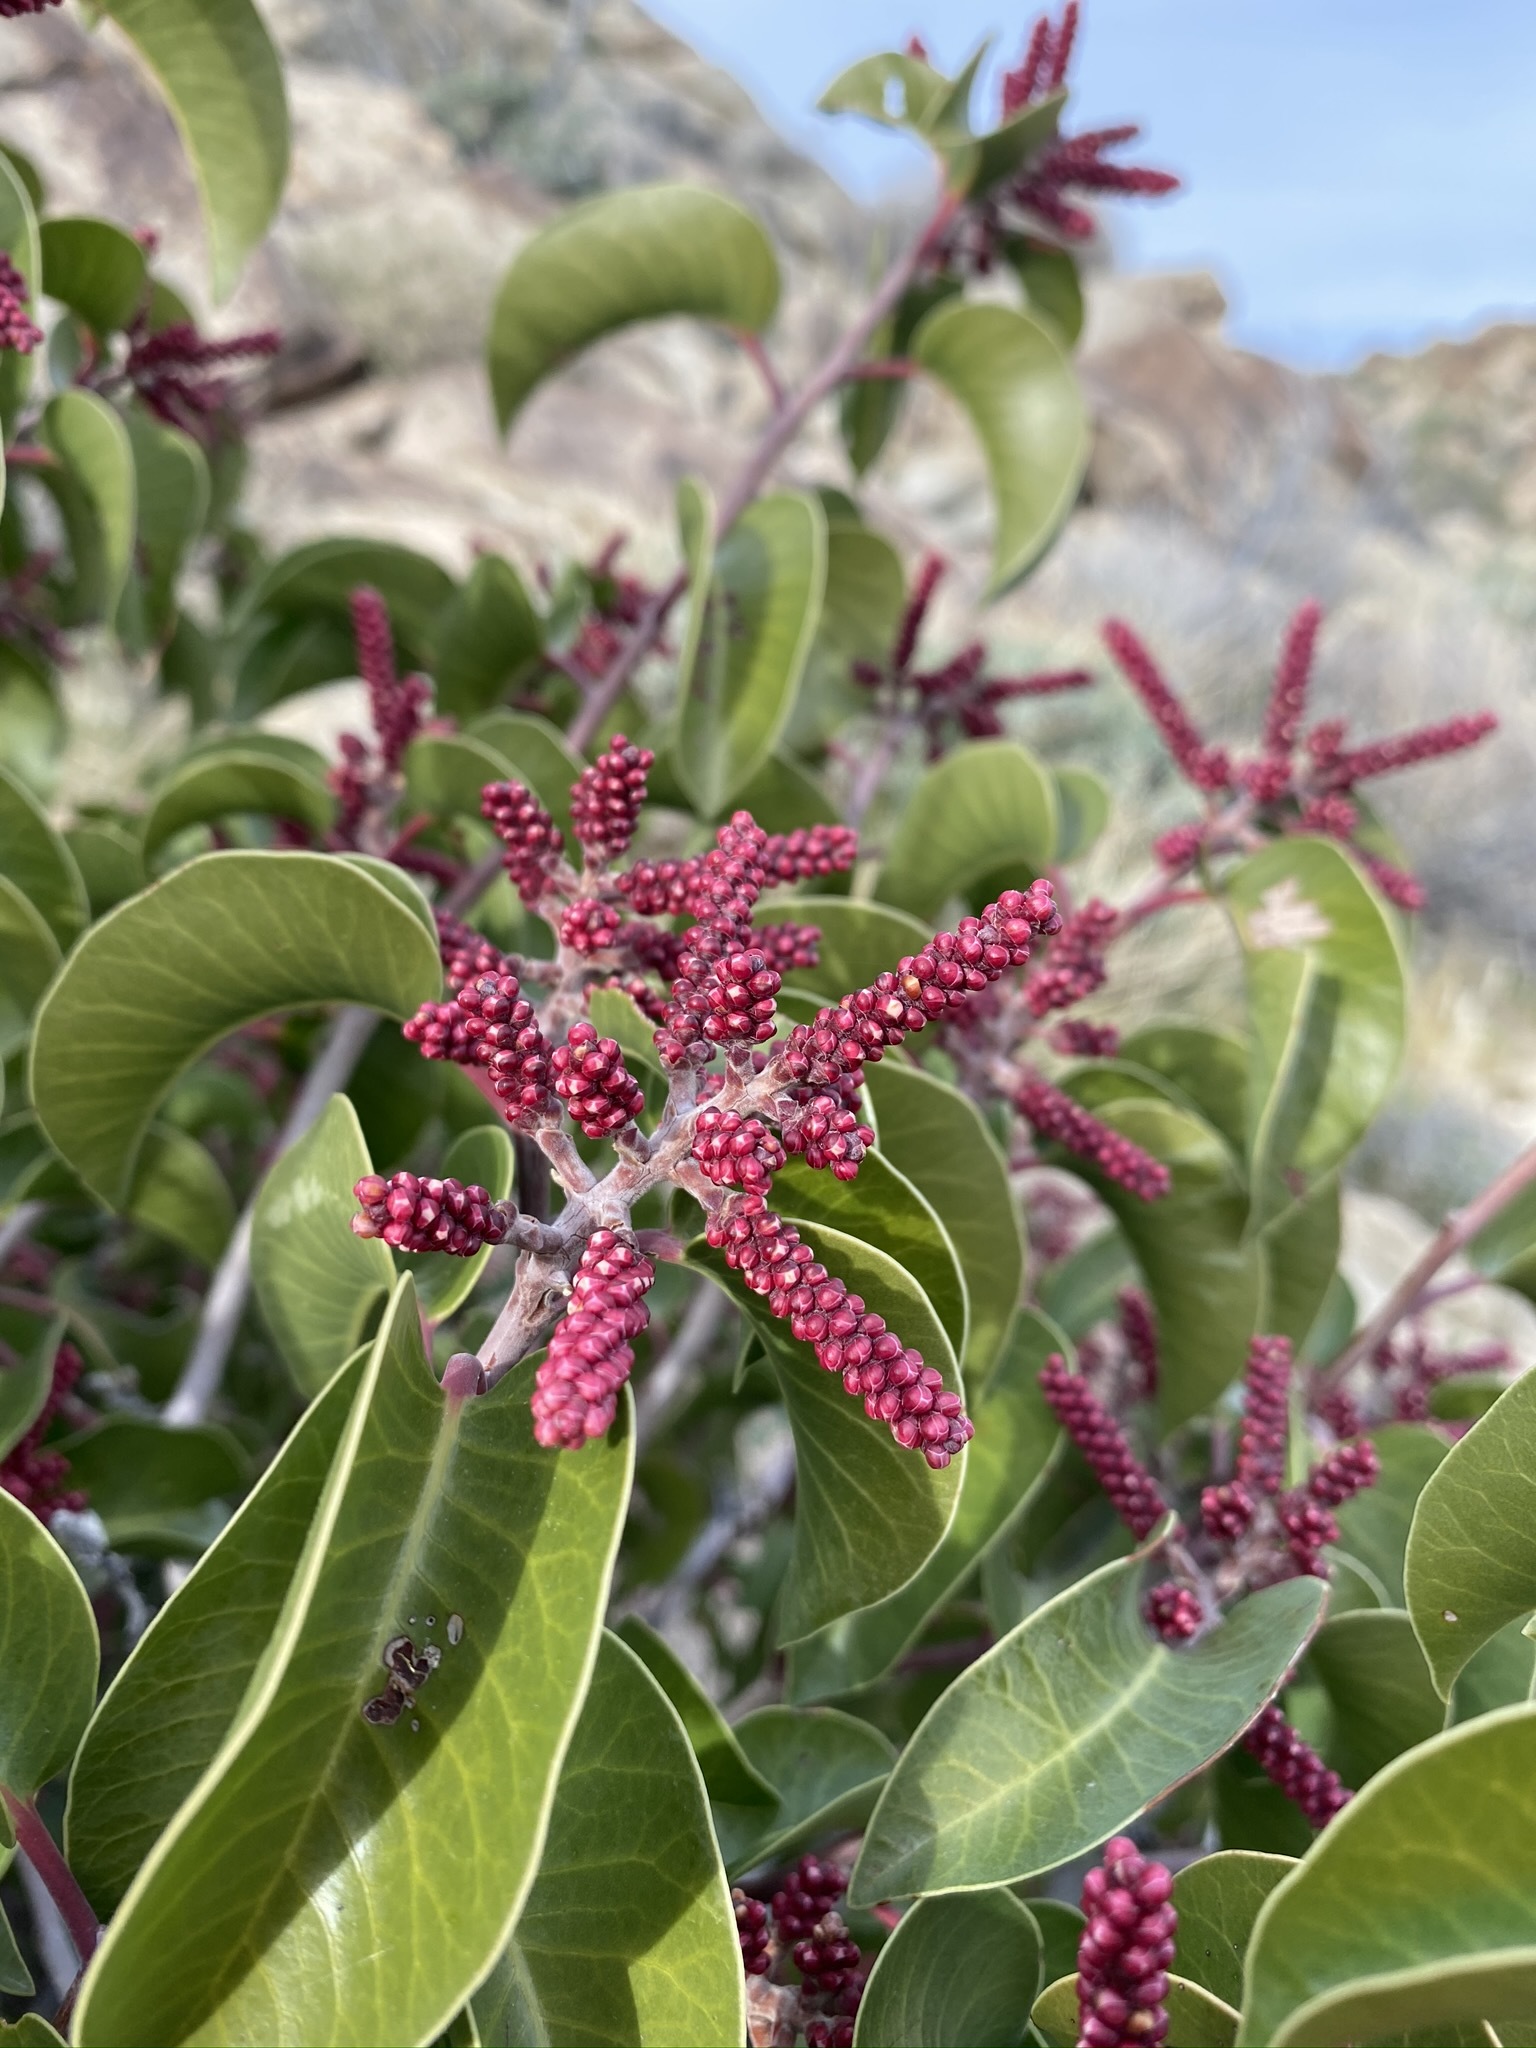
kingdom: Plantae
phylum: Tracheophyta
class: Magnoliopsida
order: Sapindales
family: Anacardiaceae
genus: Rhus
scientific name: Rhus ovata
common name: Sugar sumac
